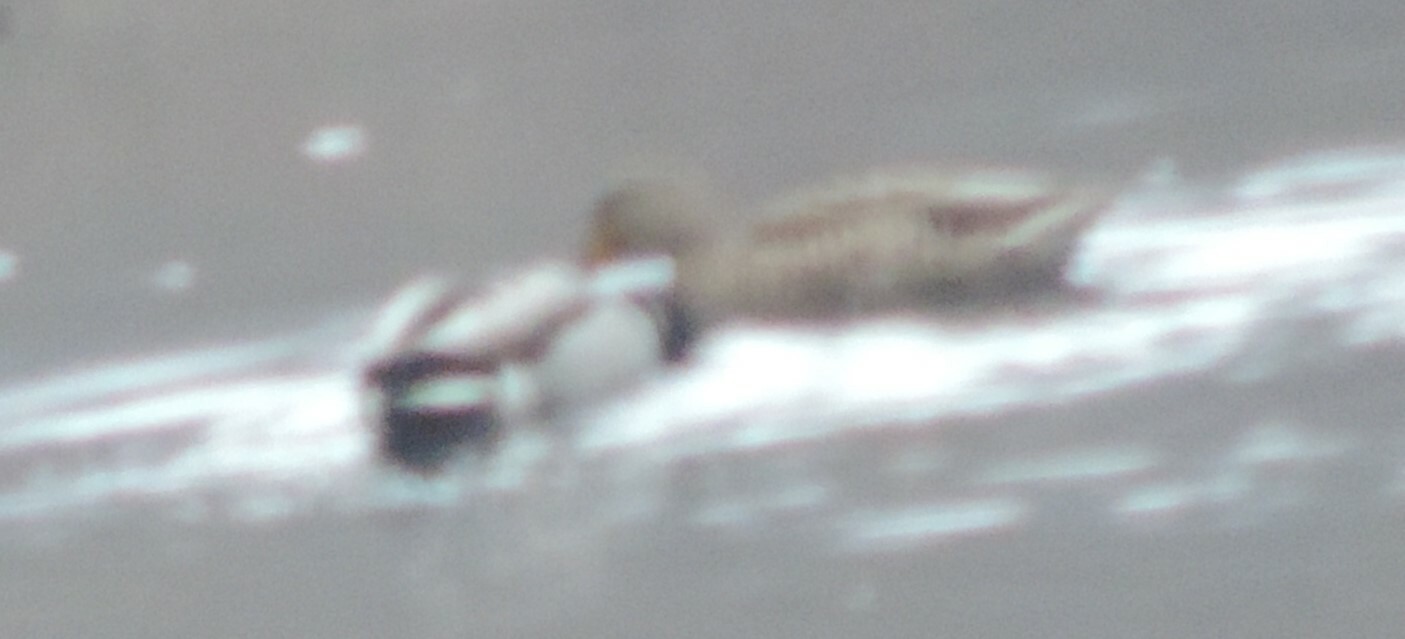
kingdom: Animalia
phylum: Chordata
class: Aves
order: Anseriformes
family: Anatidae
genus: Anas
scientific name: Anas platyrhynchos
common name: Mallard
